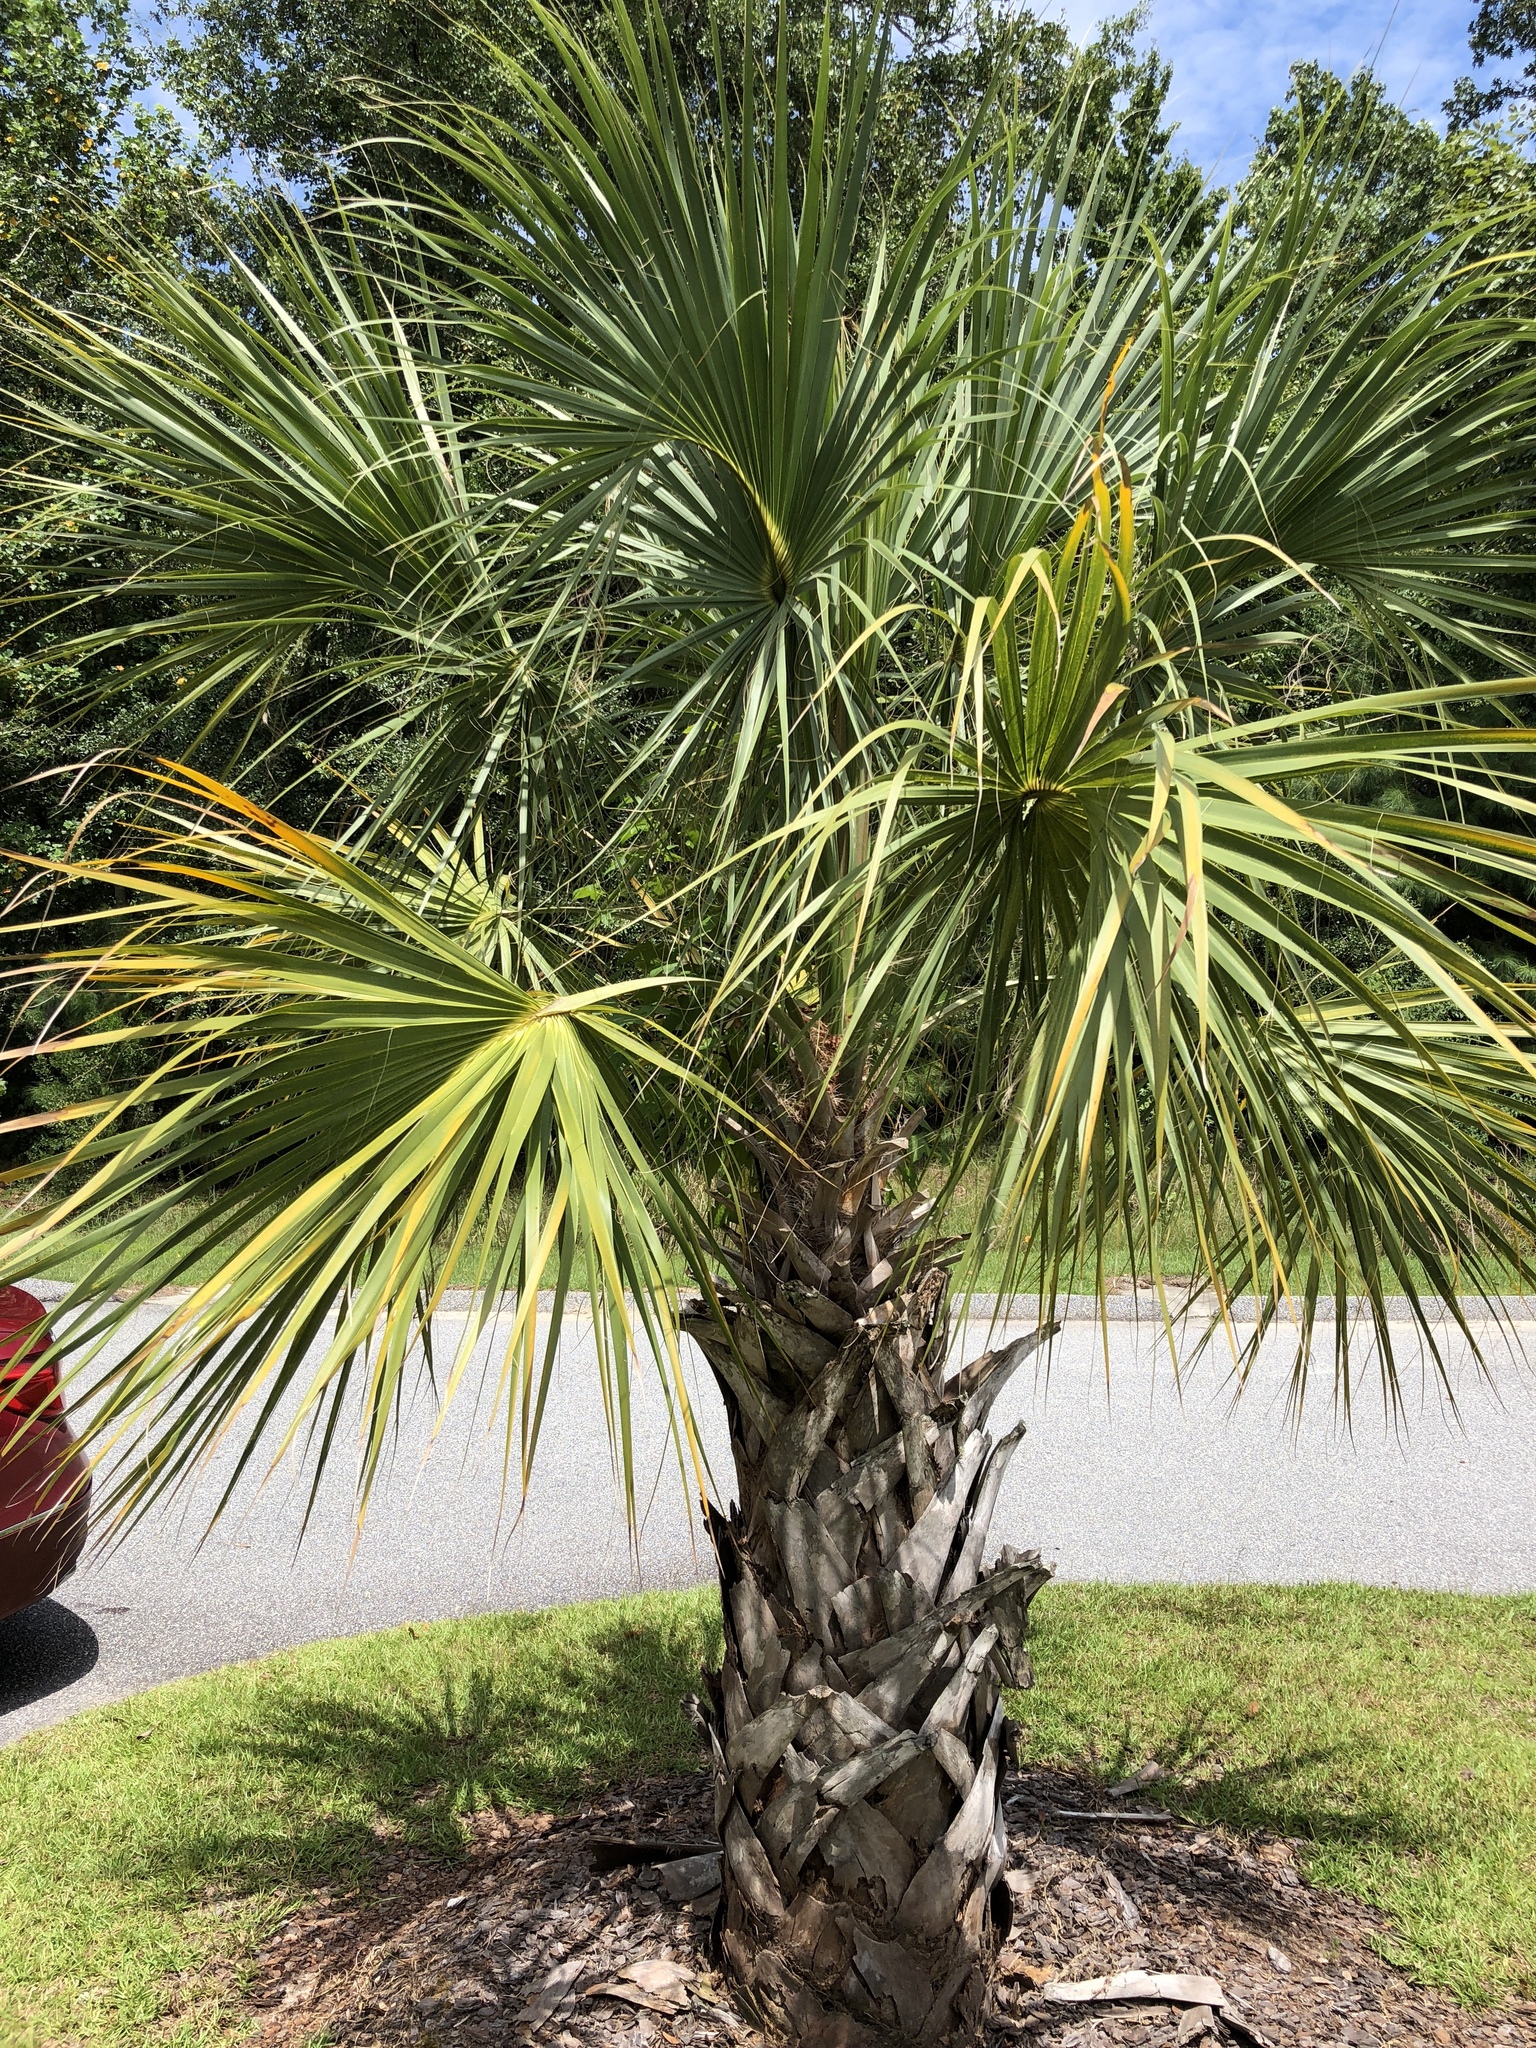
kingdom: Plantae
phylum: Tracheophyta
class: Liliopsida
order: Arecales
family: Arecaceae
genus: Sabal
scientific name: Sabal palmetto
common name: Blue palmetto
